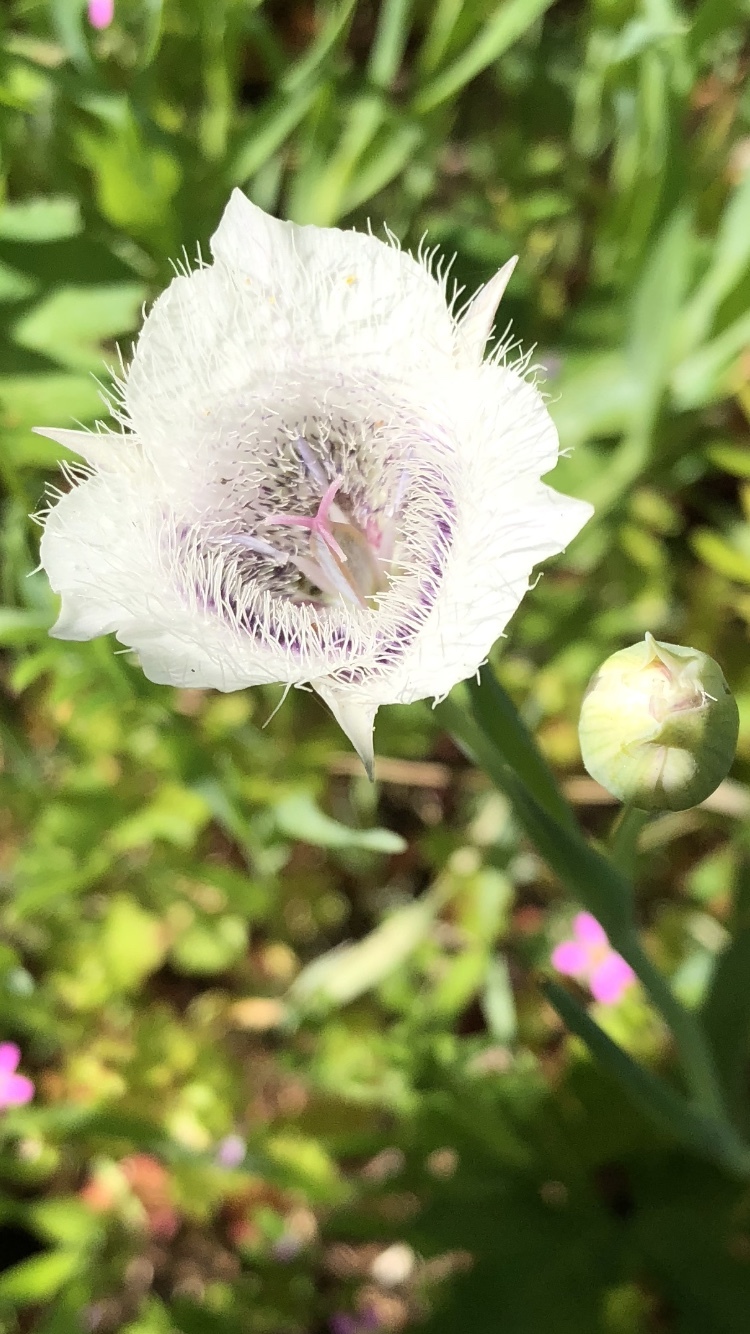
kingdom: Plantae
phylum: Tracheophyta
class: Liliopsida
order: Liliales
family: Liliaceae
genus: Calochortus
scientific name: Calochortus tolmiei
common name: Pussy-ears
